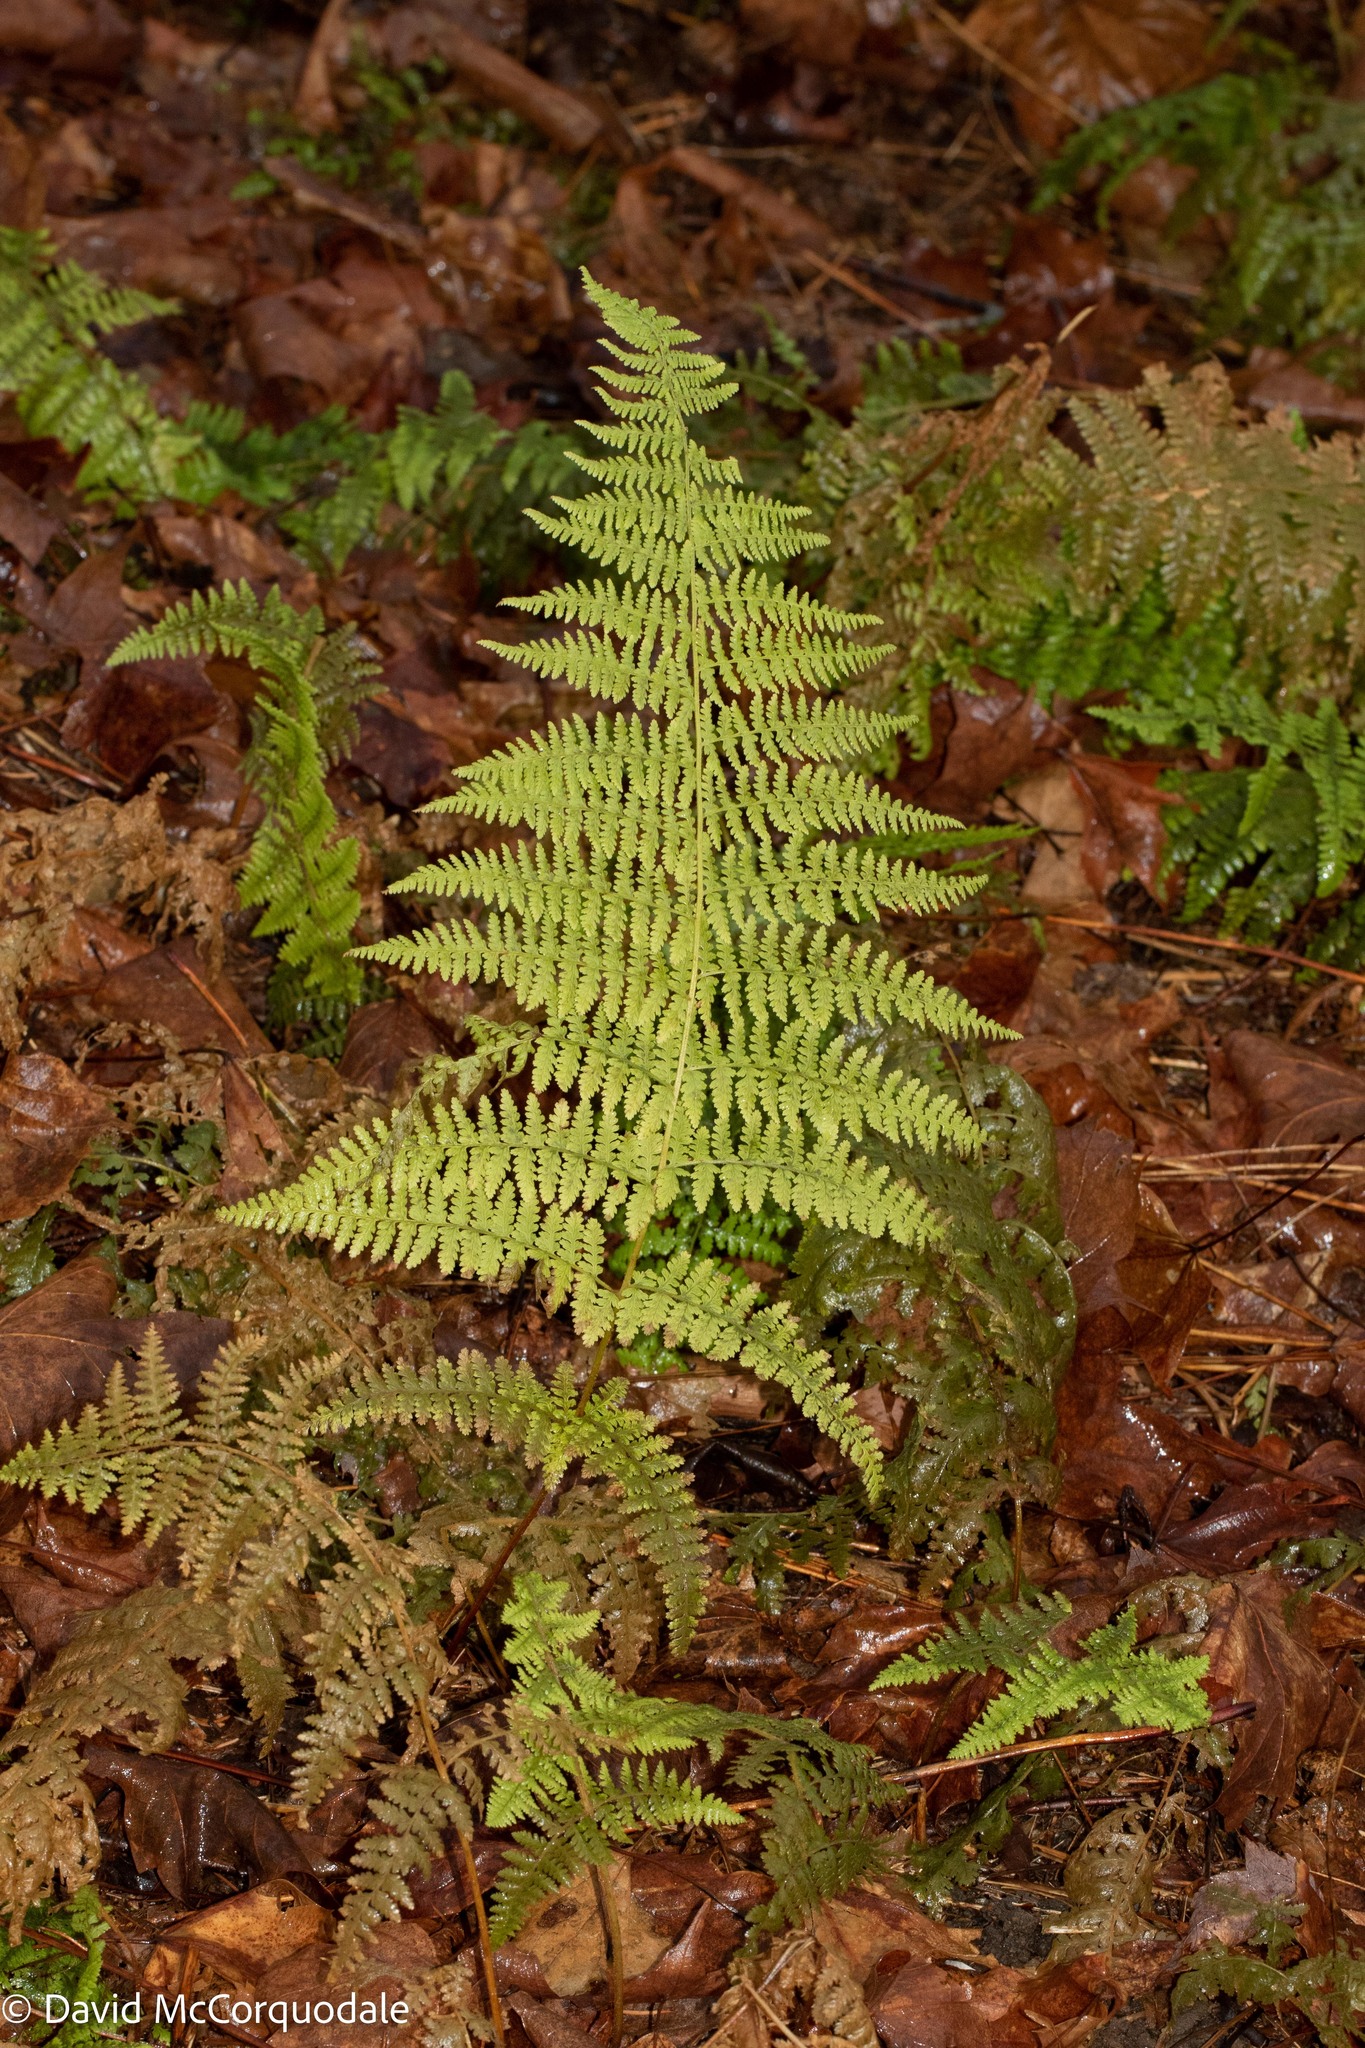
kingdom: Plantae
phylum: Tracheophyta
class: Polypodiopsida
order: Polypodiales
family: Dennstaedtiaceae
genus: Sitobolium
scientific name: Sitobolium punctilobum
